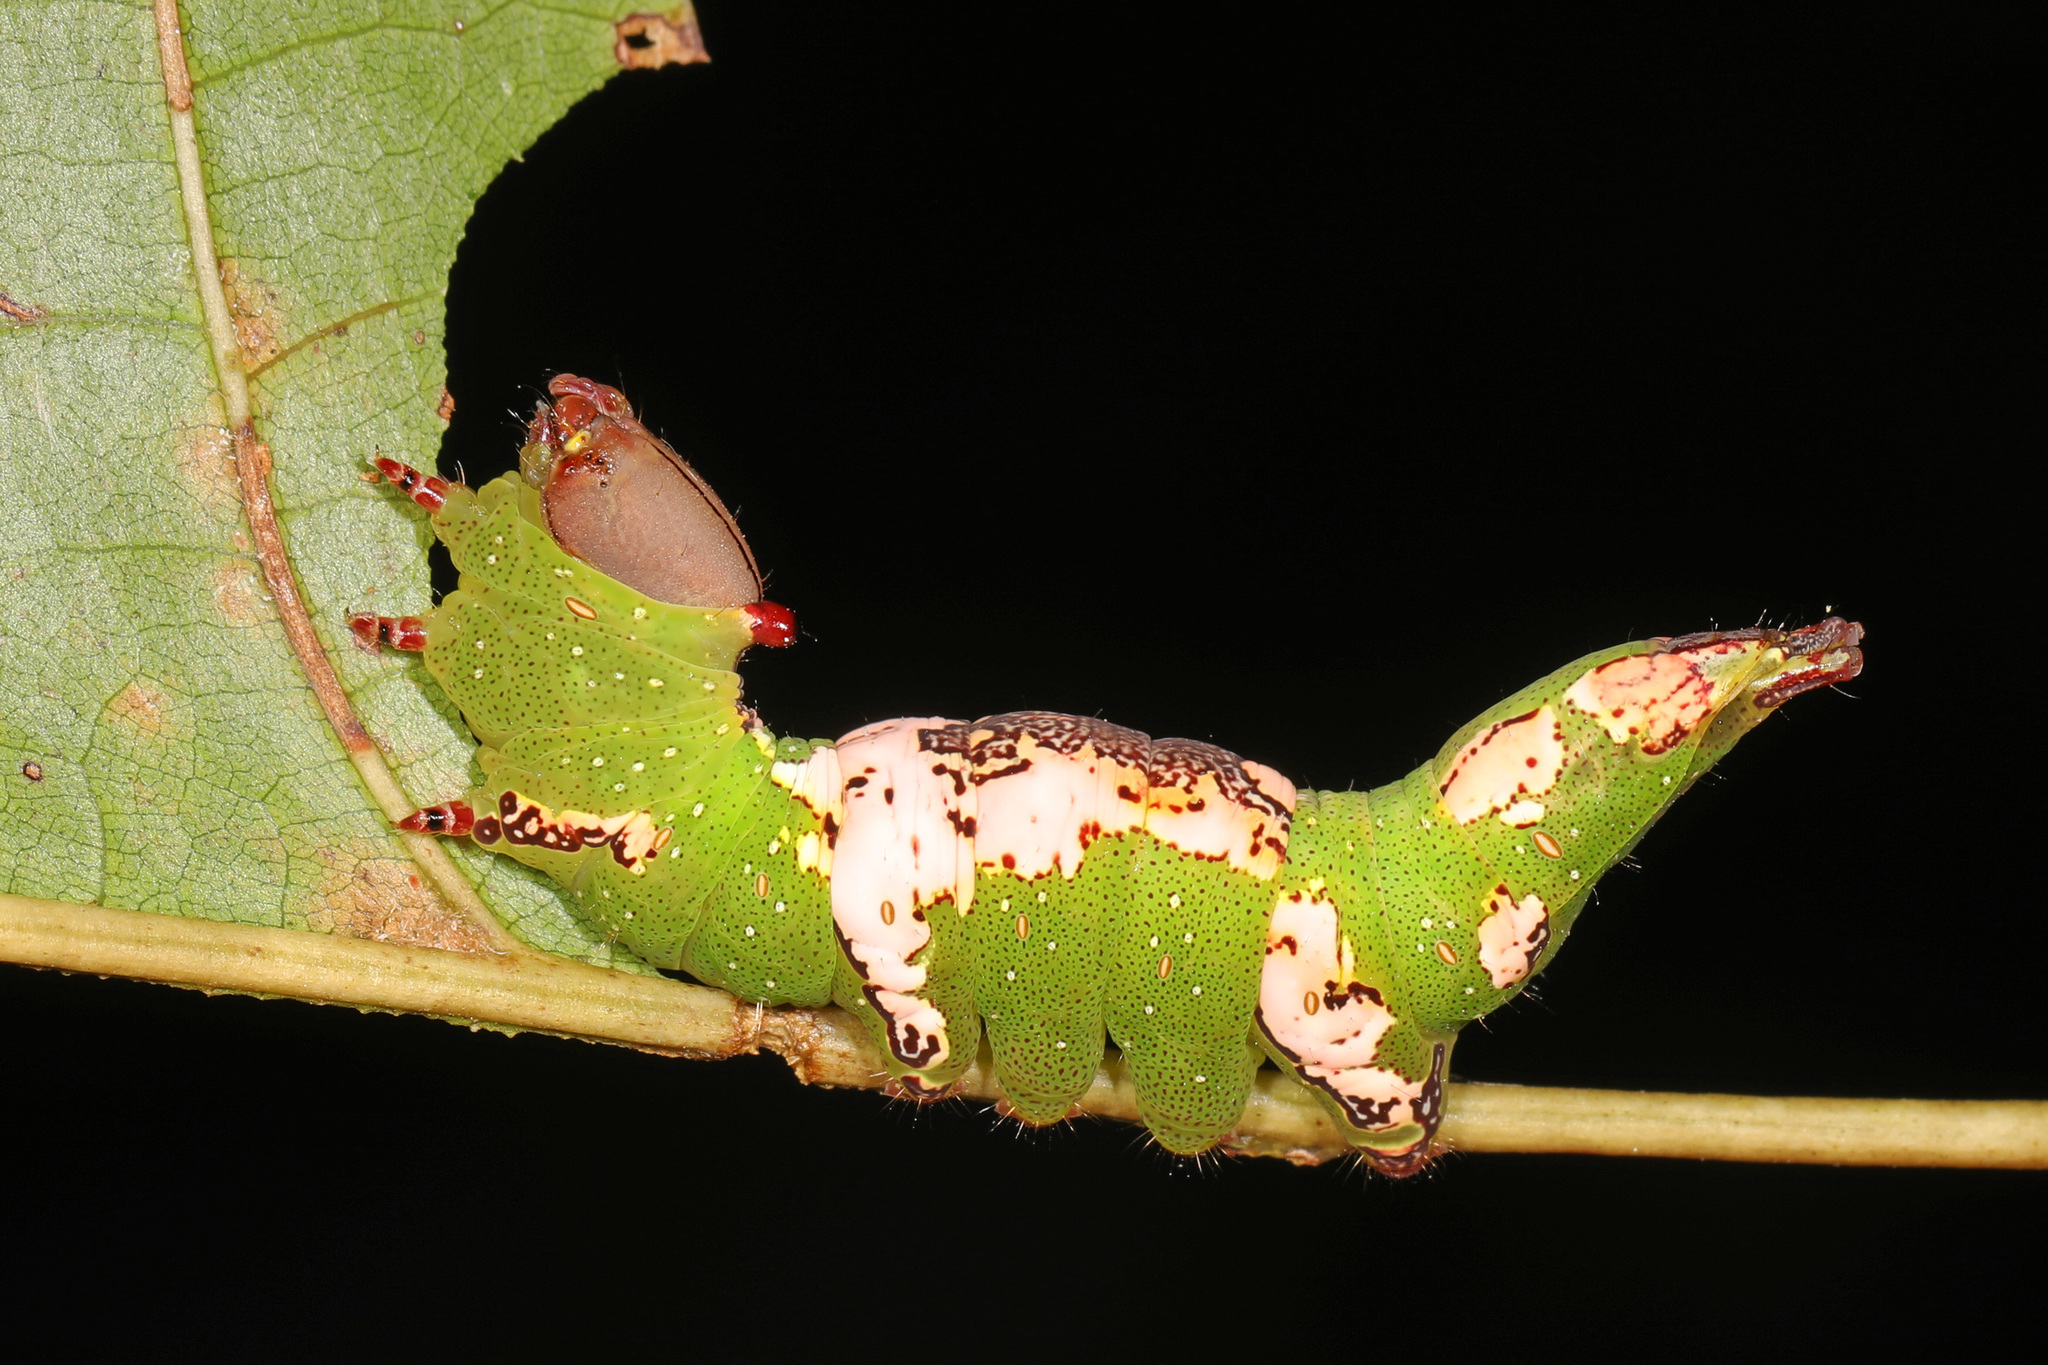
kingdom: Animalia
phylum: Arthropoda
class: Insecta
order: Lepidoptera
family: Notodontidae
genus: Heterocampa
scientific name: Heterocampa
